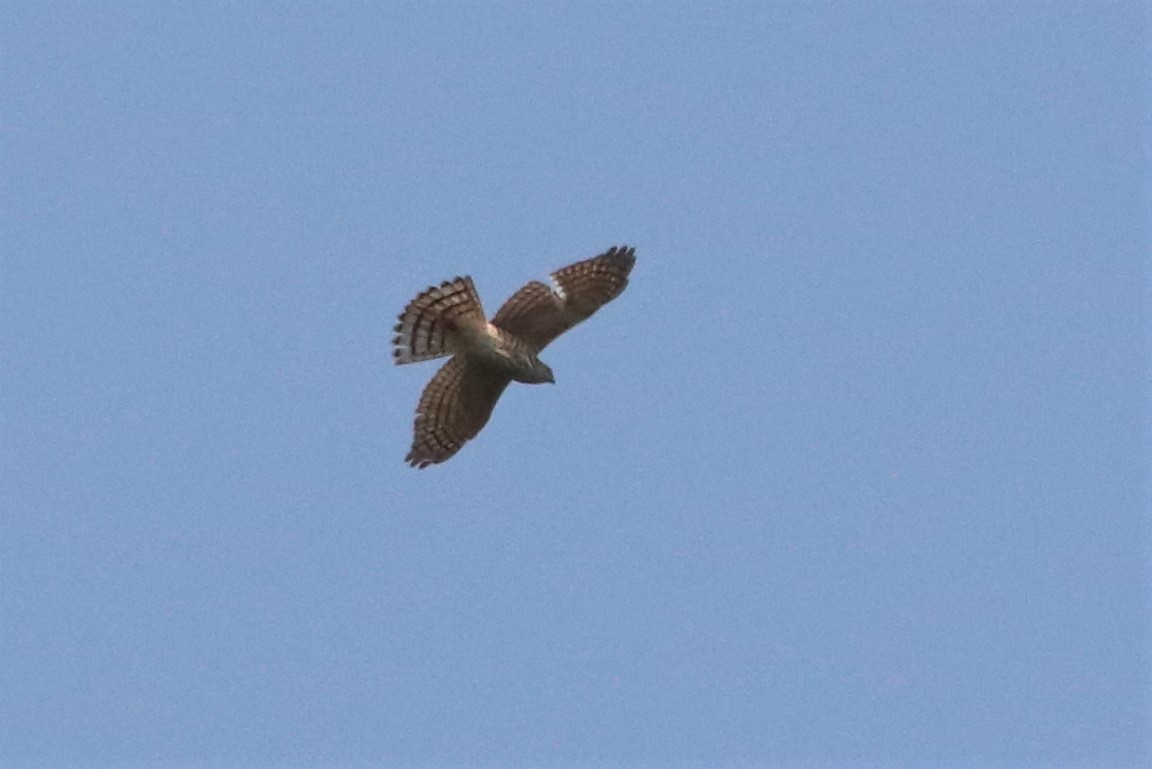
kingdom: Animalia
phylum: Chordata
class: Aves
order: Accipitriformes
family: Accipitridae
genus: Accipiter
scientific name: Accipiter badius
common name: Shikra
